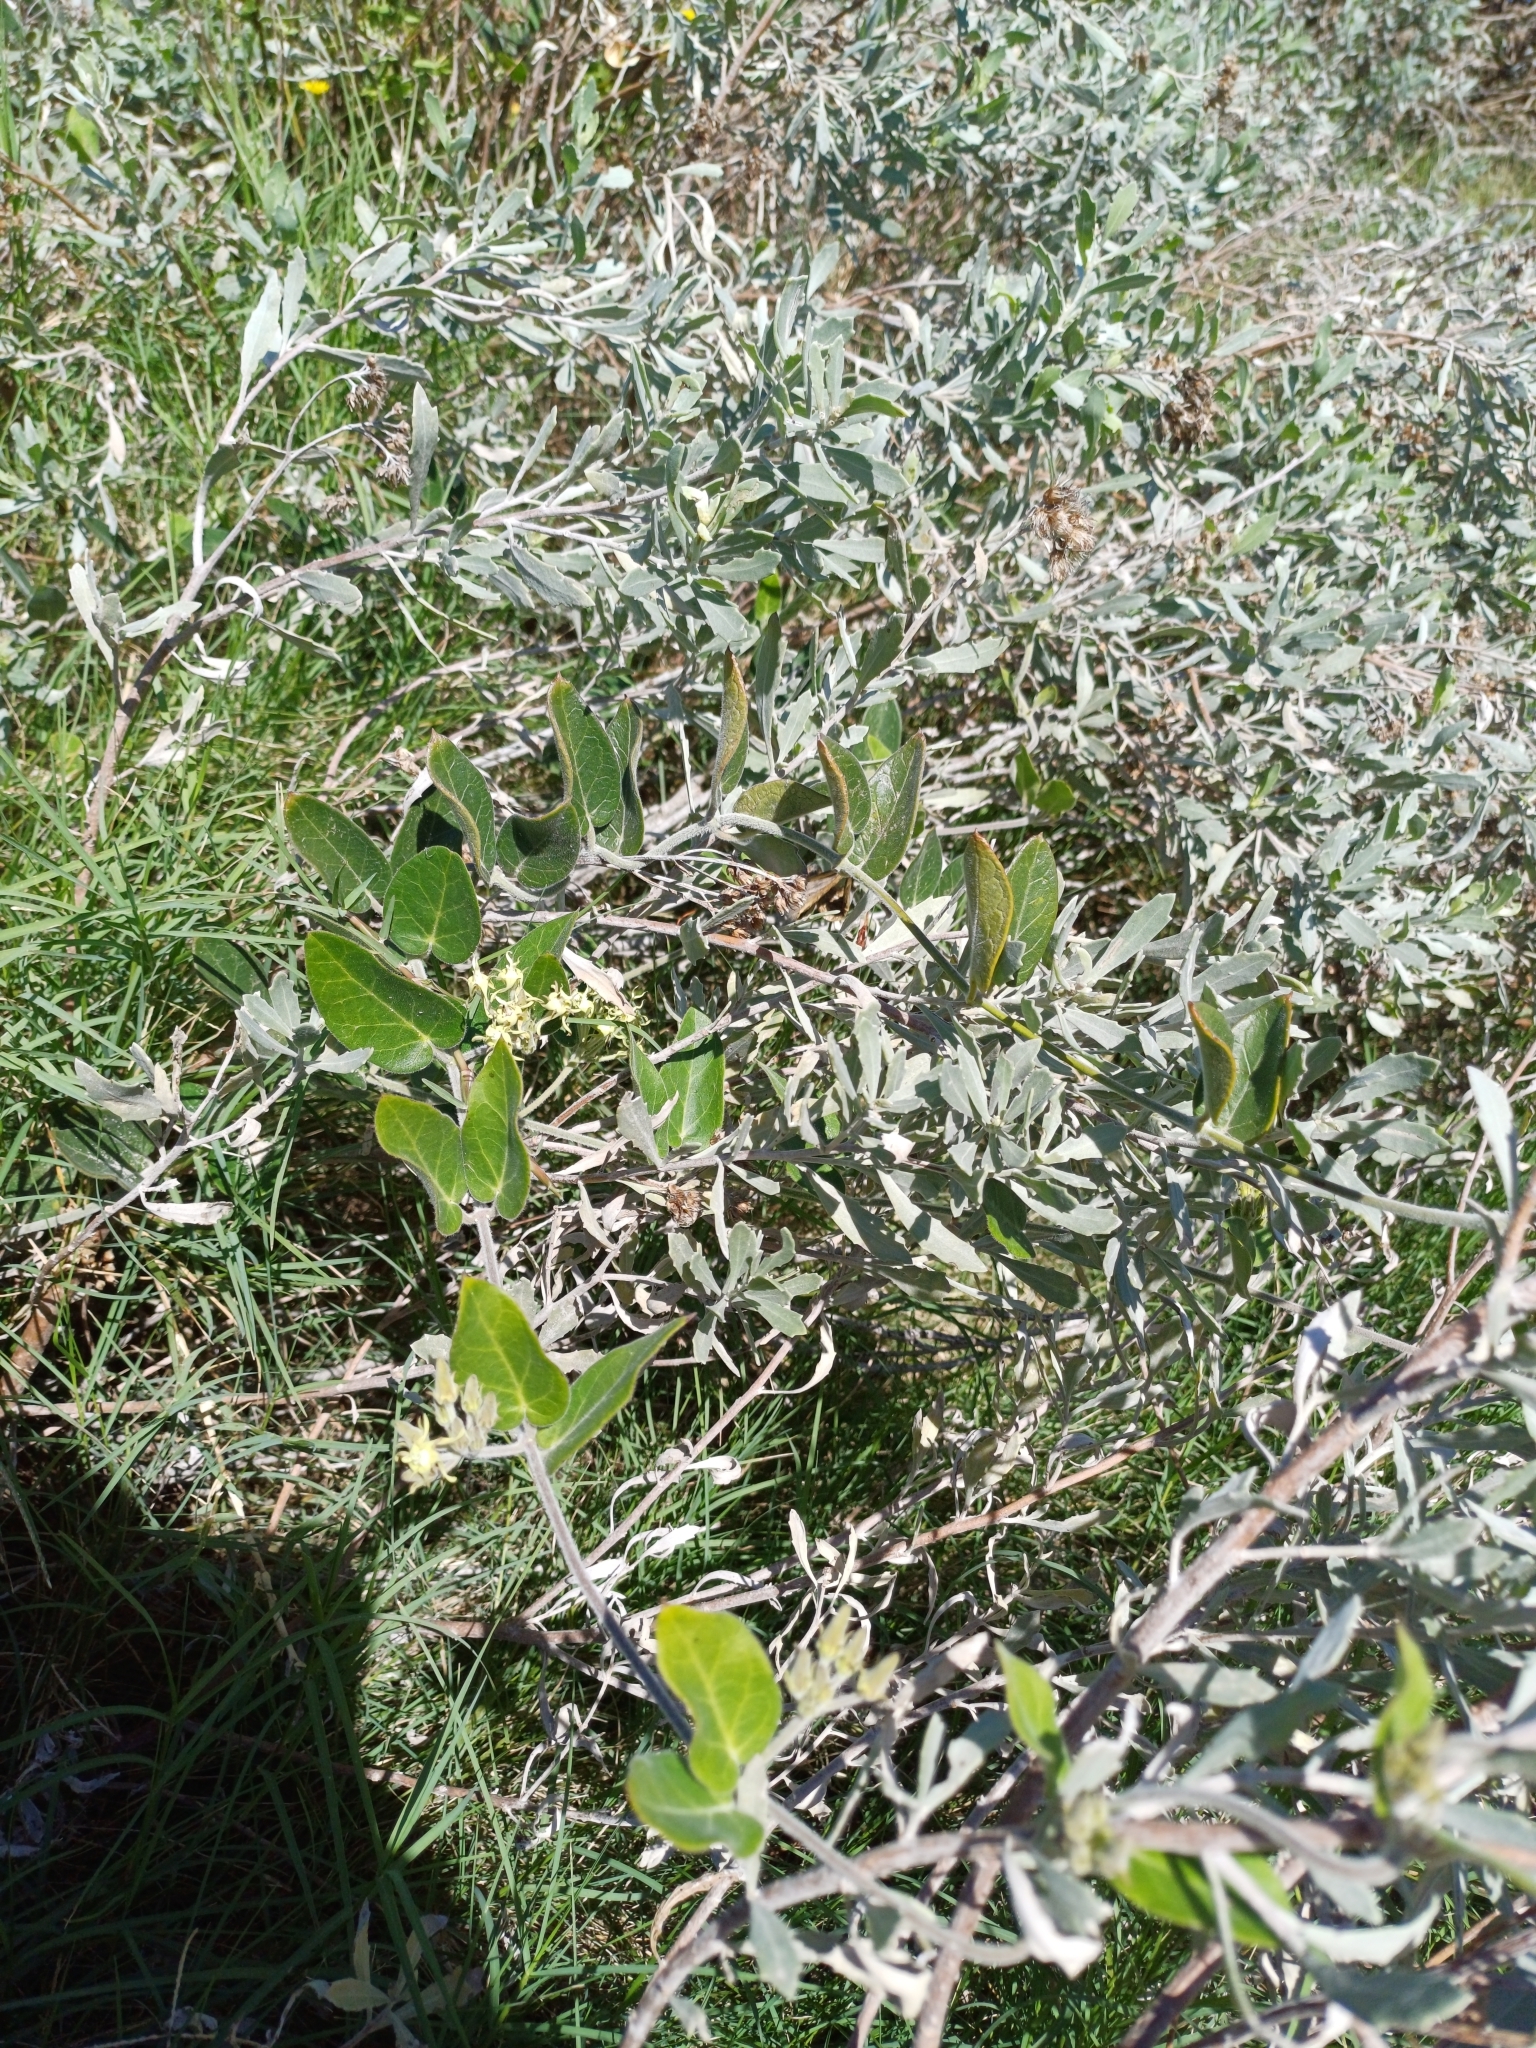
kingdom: Plantae
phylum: Tracheophyta
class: Magnoliopsida
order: Gentianales
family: Apocynaceae
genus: Oxypetalum
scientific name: Oxypetalum tomentosum
